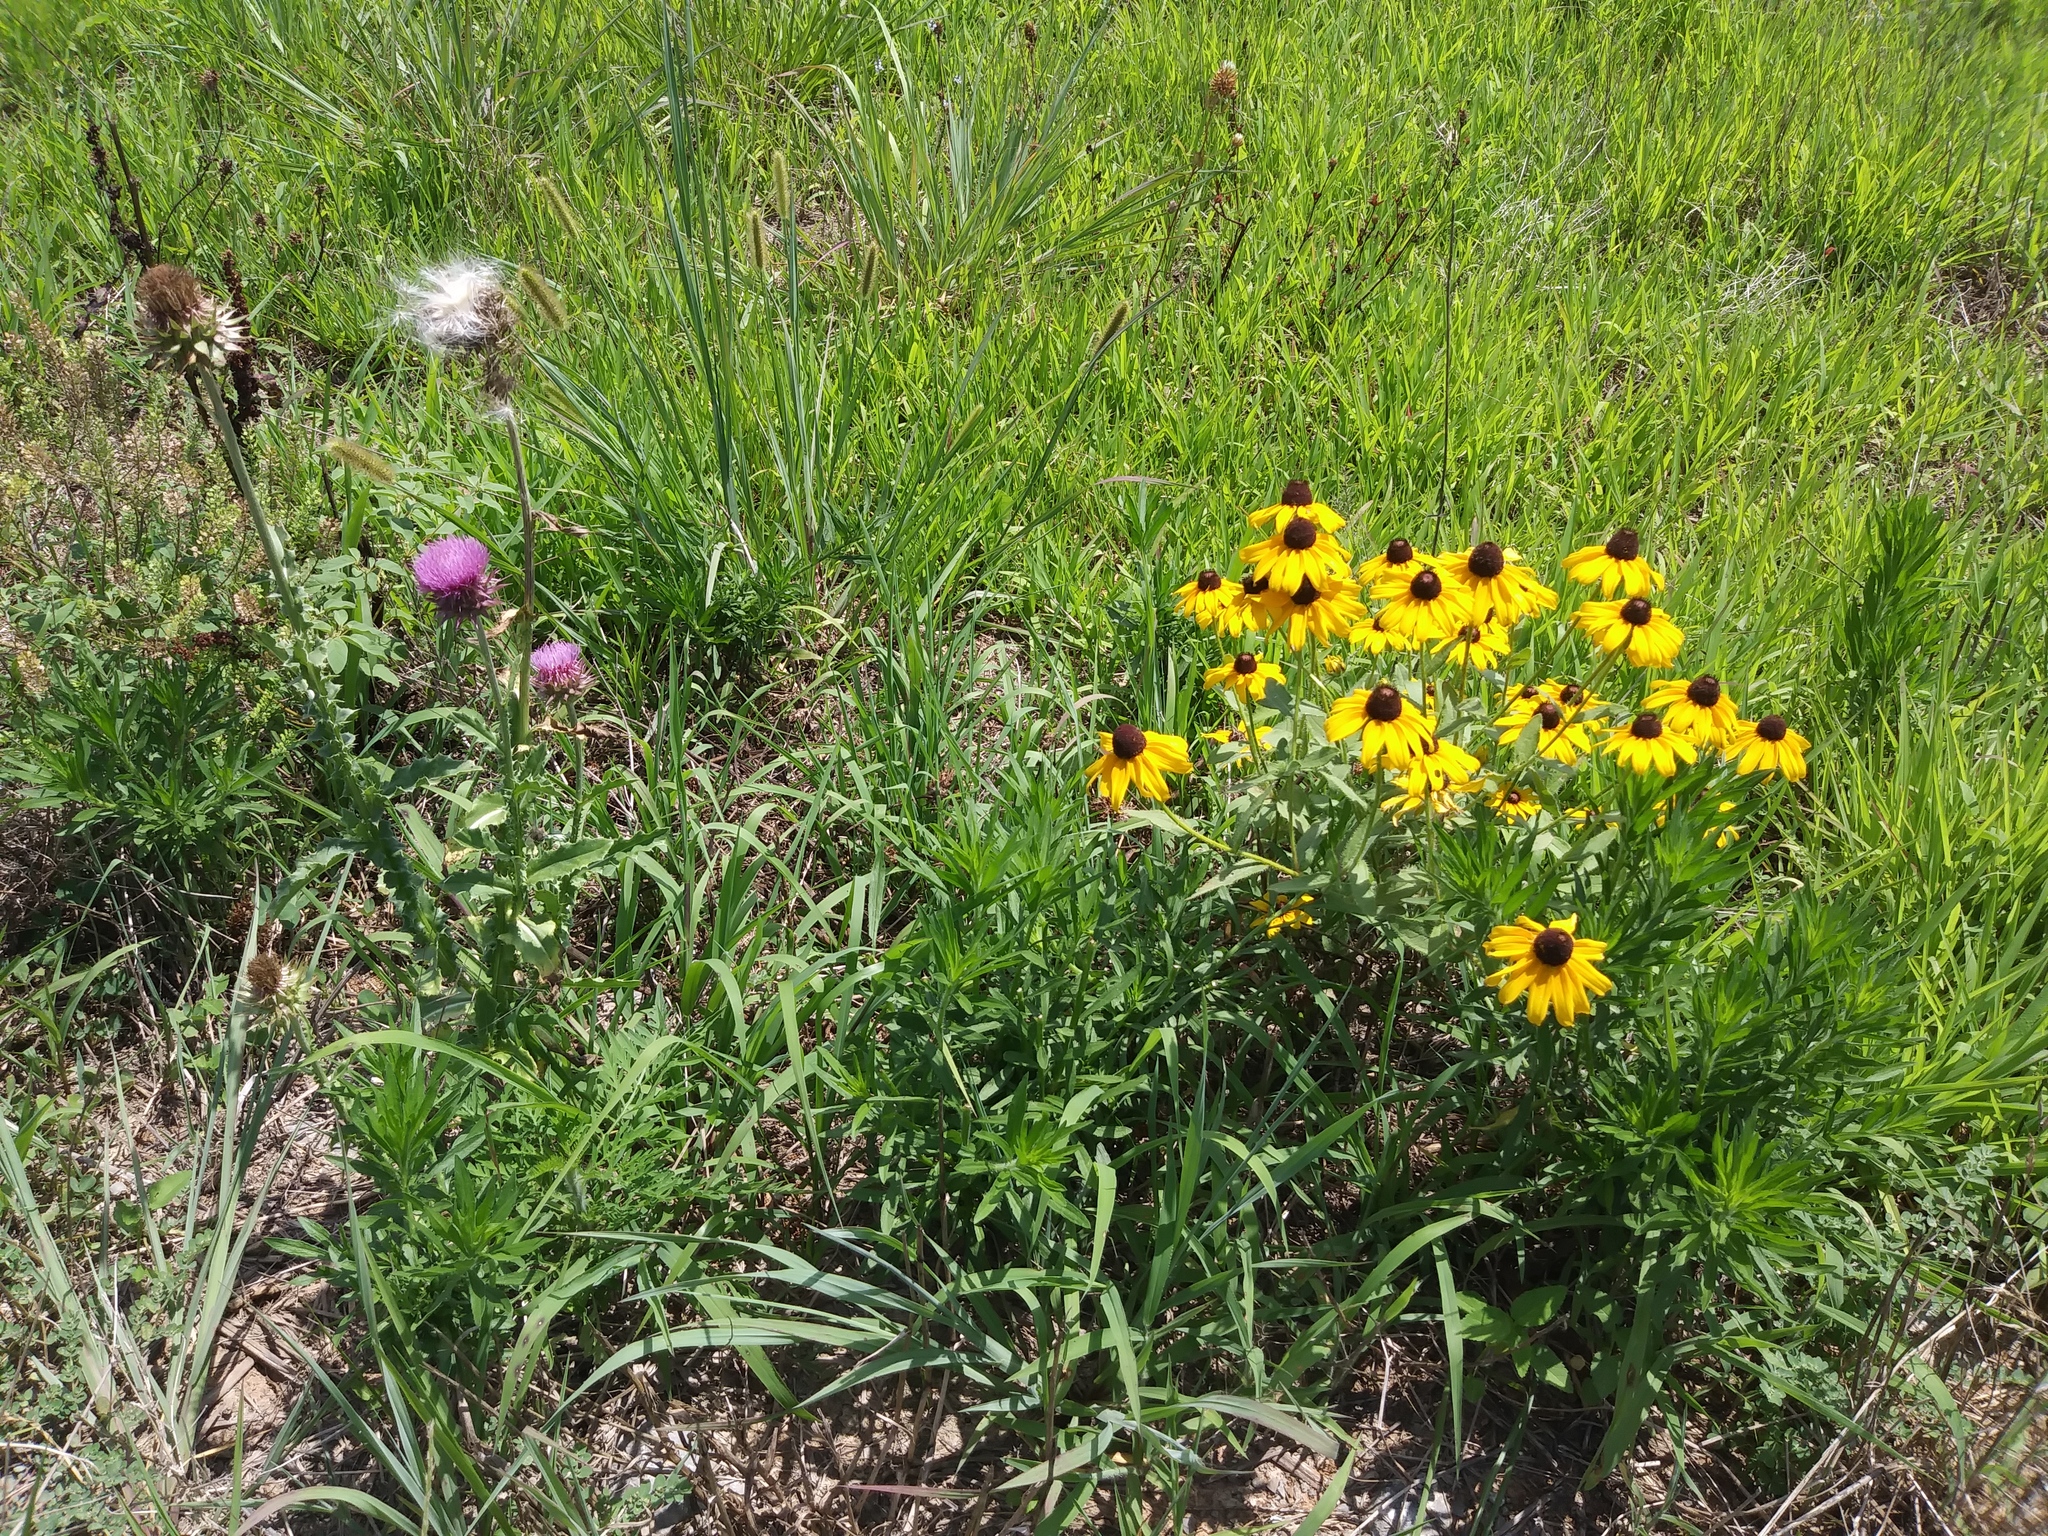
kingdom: Plantae
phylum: Tracheophyta
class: Magnoliopsida
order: Asterales
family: Asteraceae
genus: Rudbeckia
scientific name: Rudbeckia hirta
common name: Black-eyed-susan
